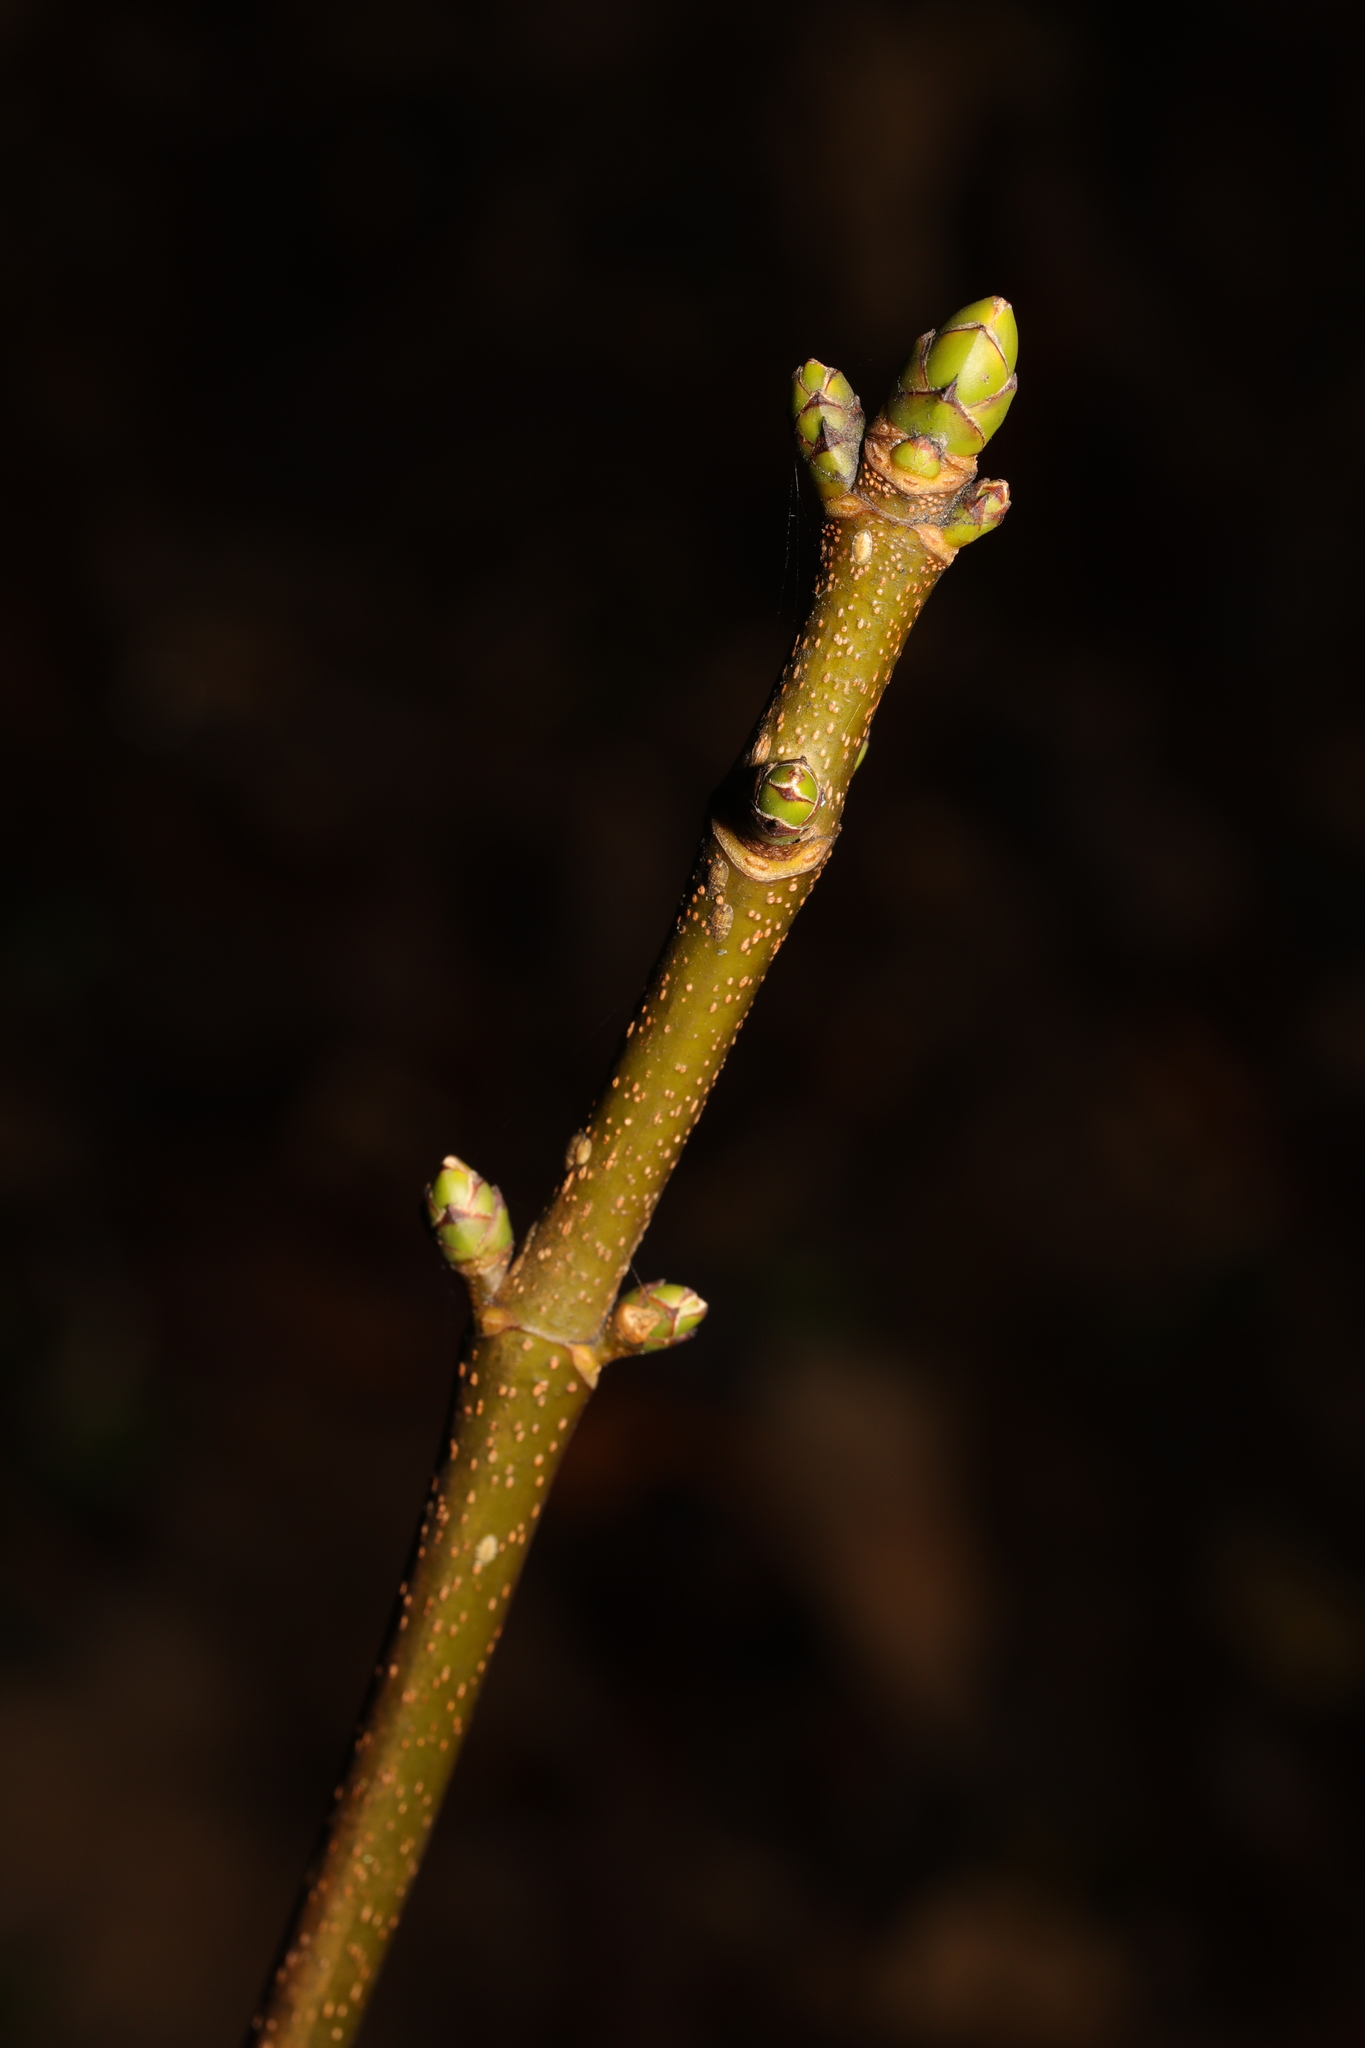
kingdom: Plantae
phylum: Tracheophyta
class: Magnoliopsida
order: Sapindales
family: Sapindaceae
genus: Acer
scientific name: Acer pseudoplatanus
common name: Sycamore
